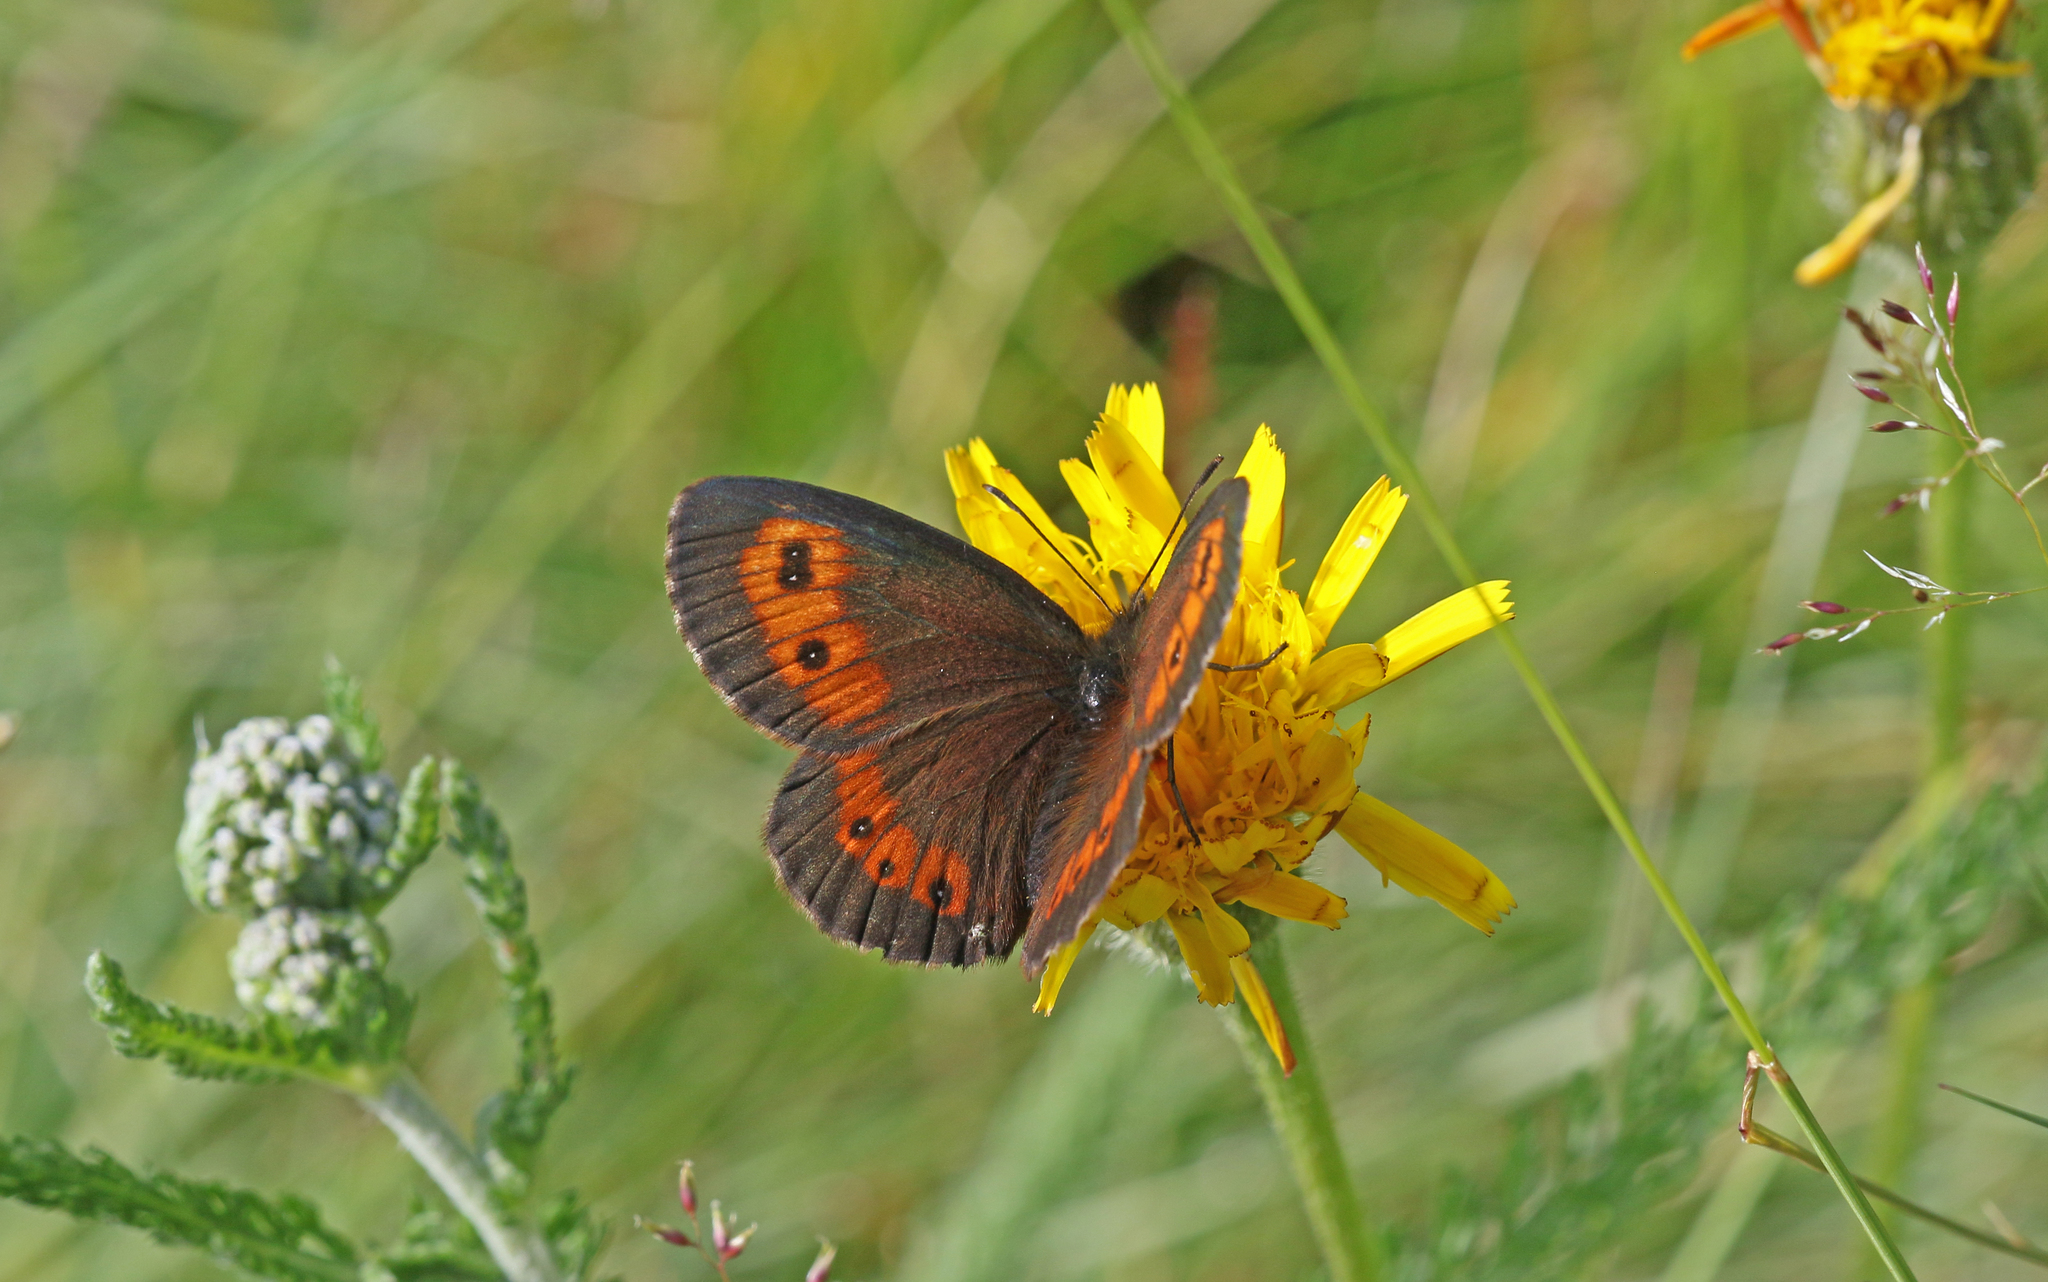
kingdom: Animalia
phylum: Arthropoda
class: Insecta
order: Lepidoptera
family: Nymphalidae
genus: Erebia
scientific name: Erebia euryale
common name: Large ringlet
